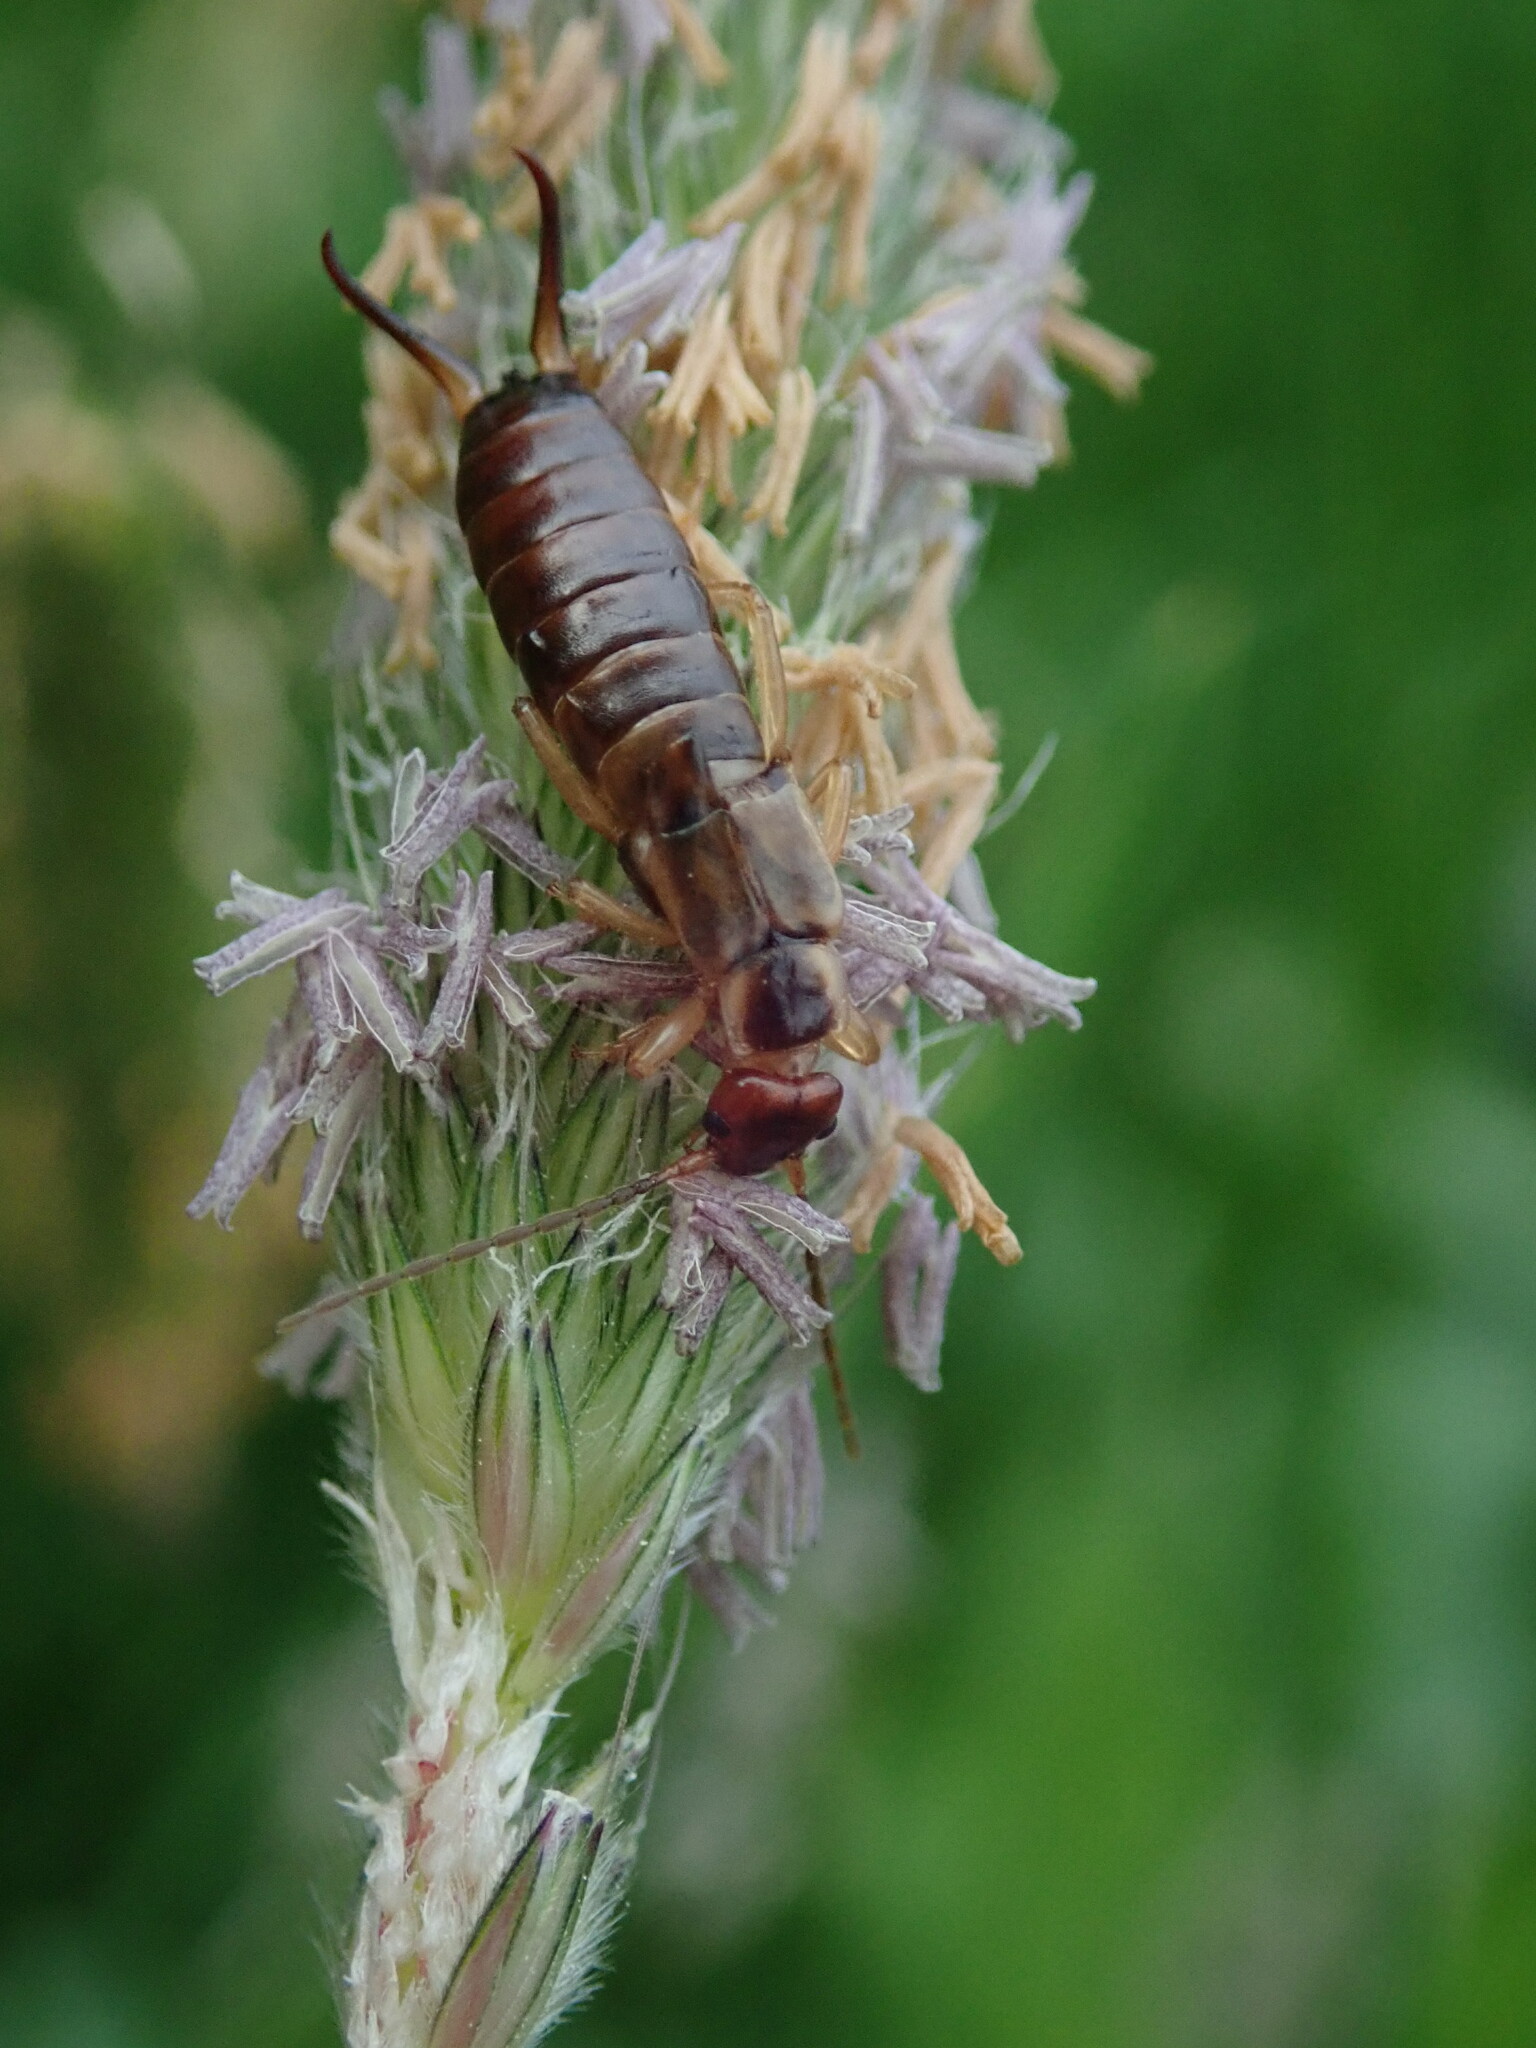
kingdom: Animalia
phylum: Arthropoda
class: Insecta
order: Dermaptera
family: Forficulidae
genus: Forficula
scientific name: Forficula
